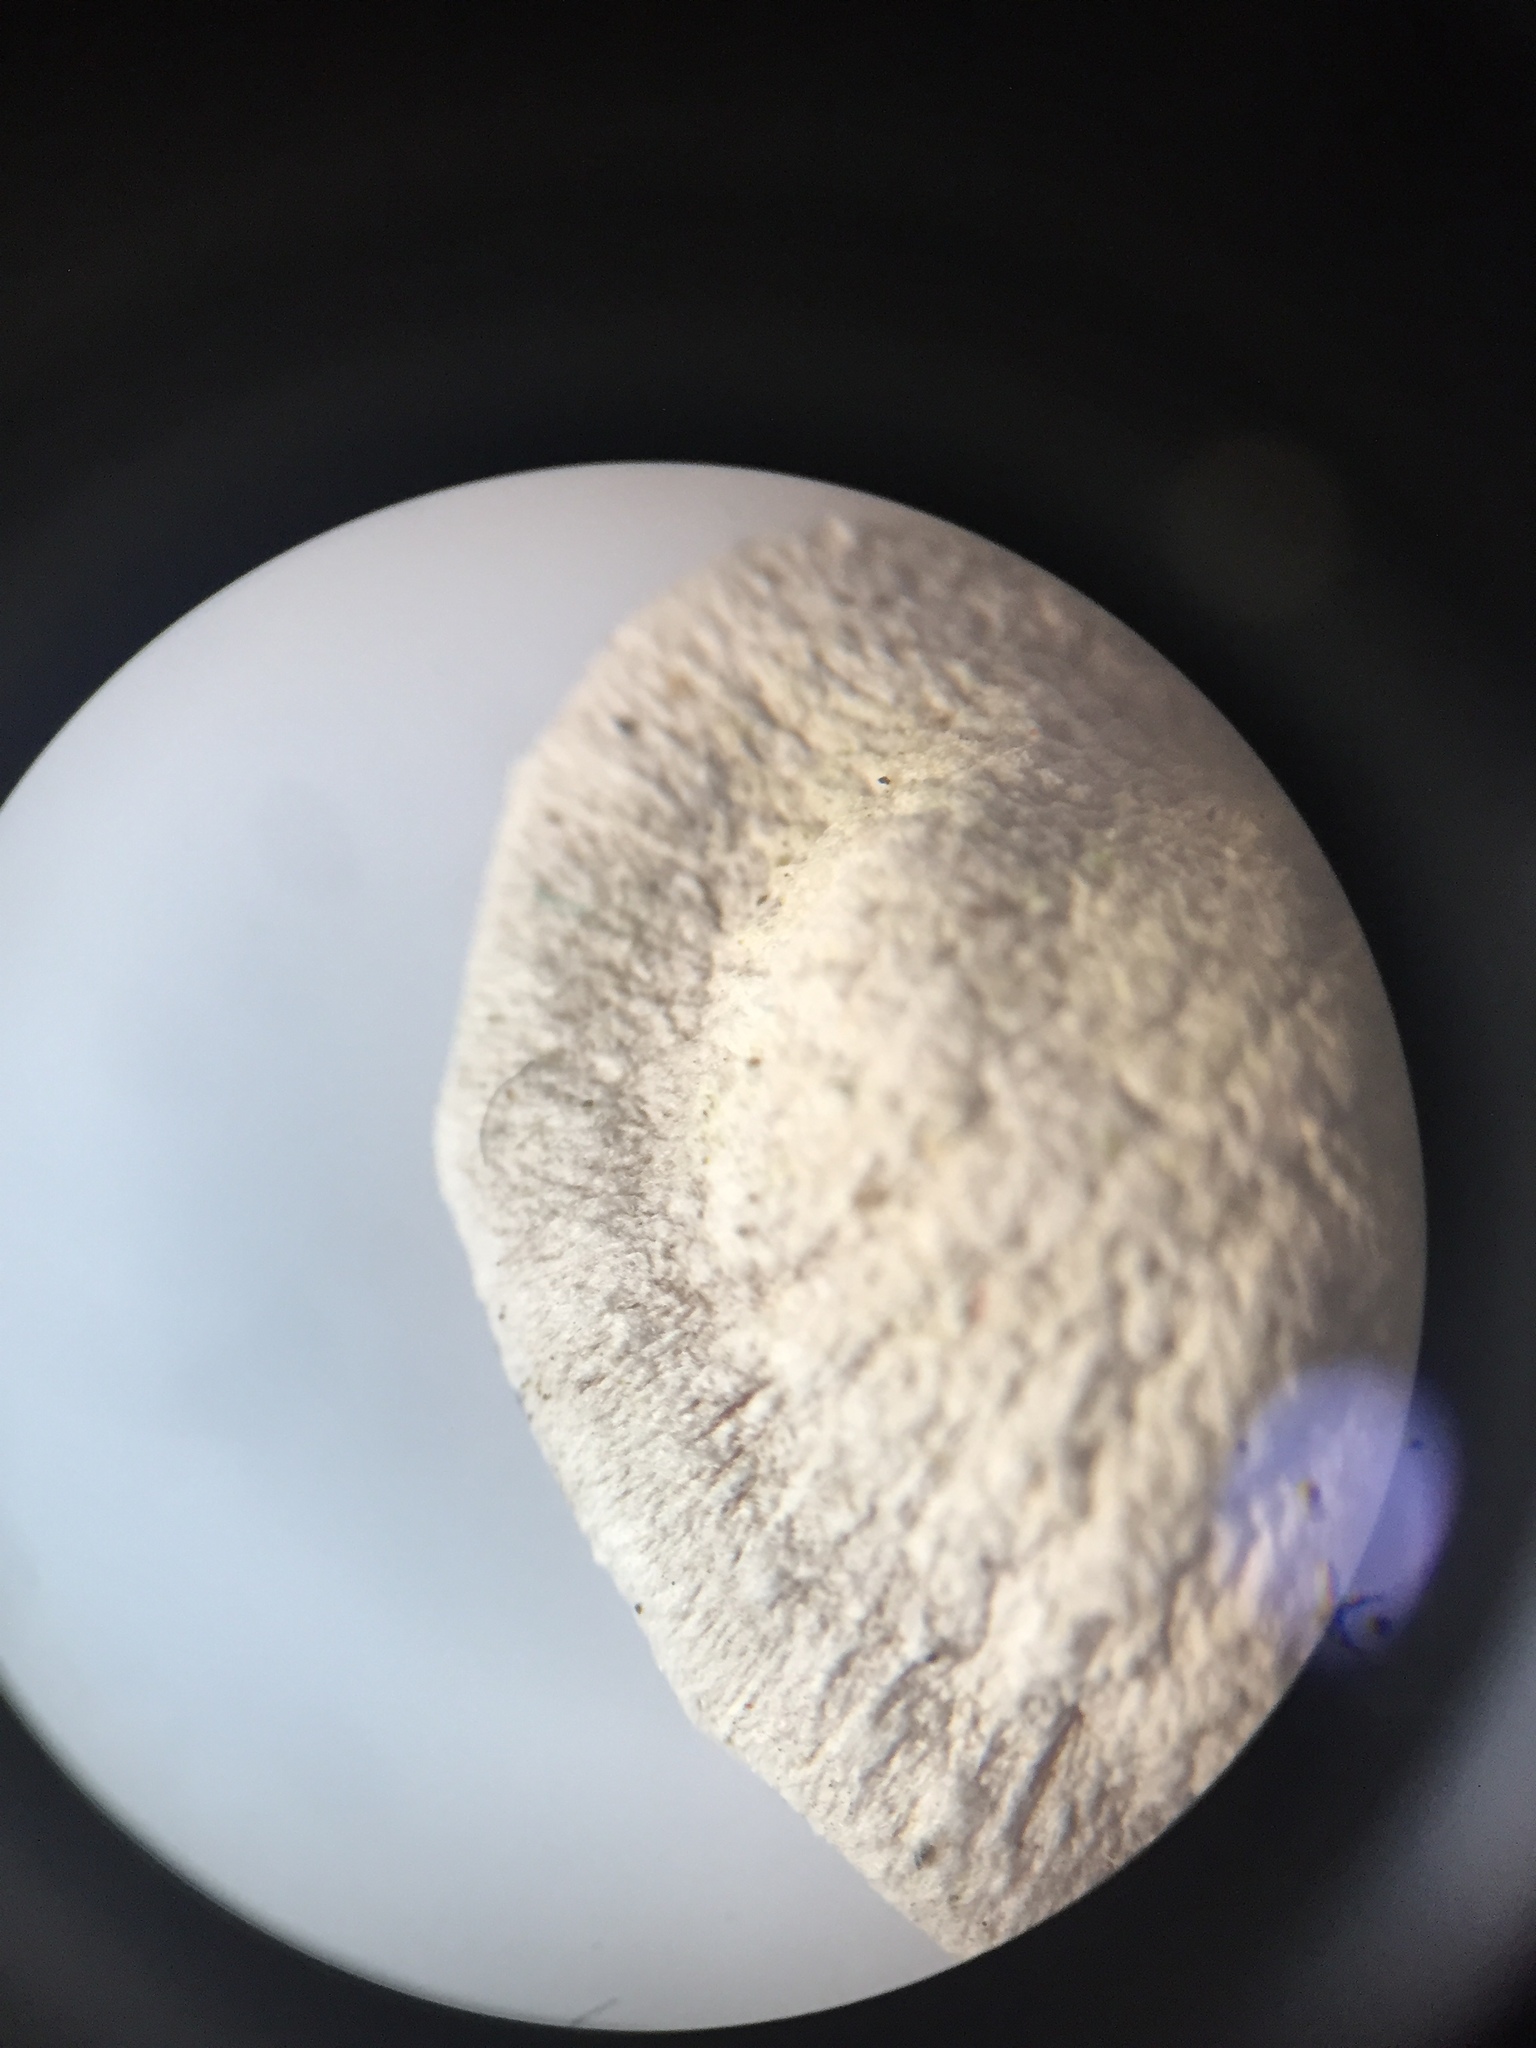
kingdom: Fungi
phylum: Basidiomycota
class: Agaricomycetes
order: Agaricales
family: Schizophyllaceae
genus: Schizophyllum
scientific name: Schizophyllum amplum
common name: Poplar bells
